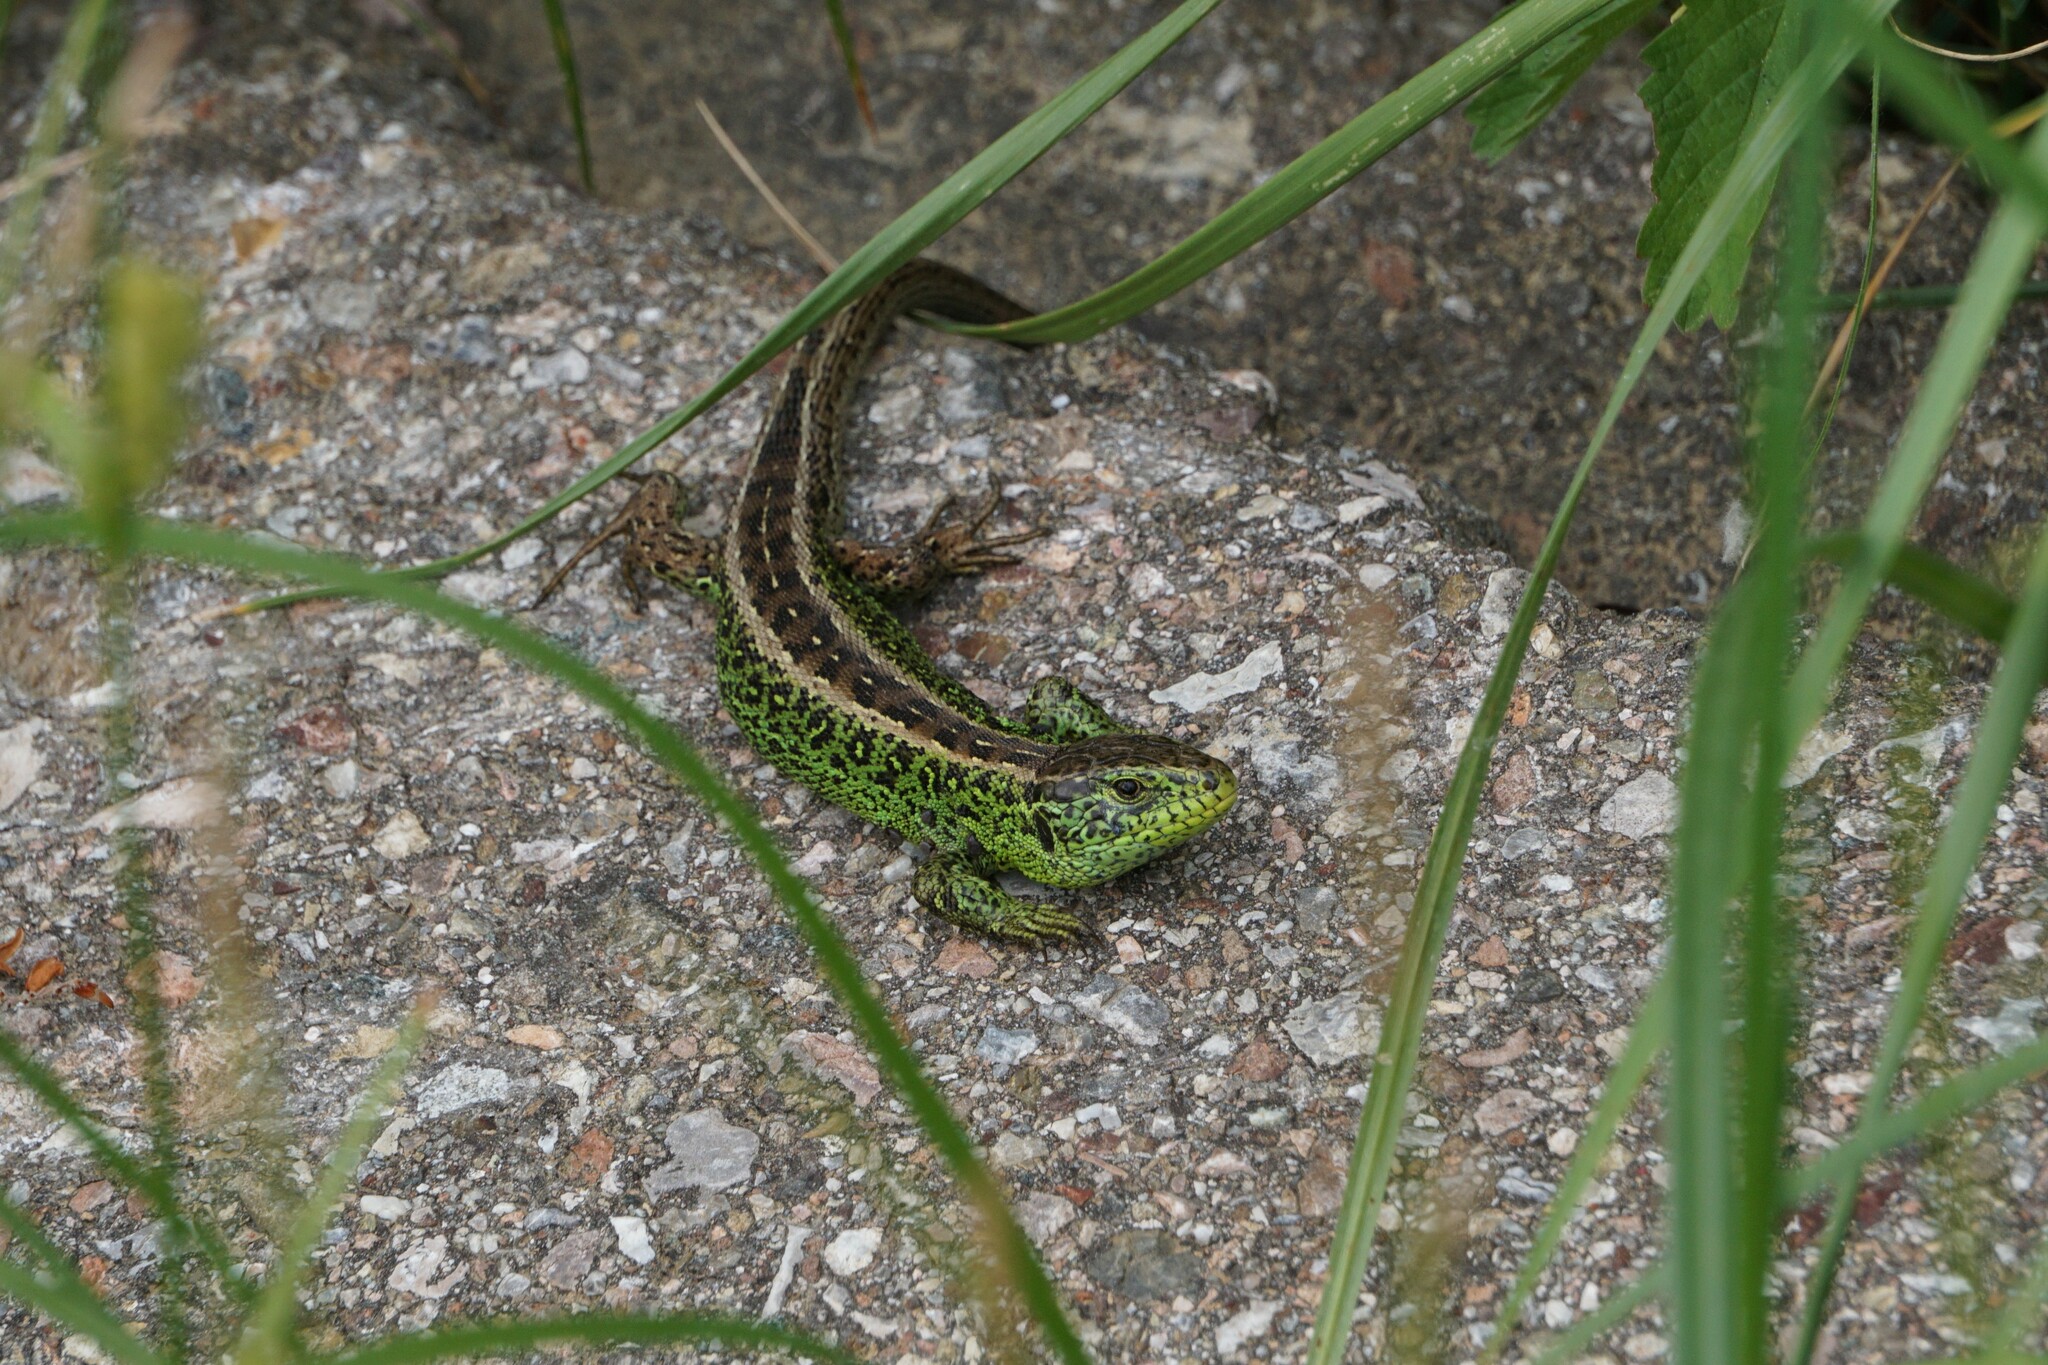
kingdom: Animalia
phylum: Chordata
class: Squamata
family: Lacertidae
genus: Lacerta
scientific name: Lacerta agilis
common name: Sand lizard
